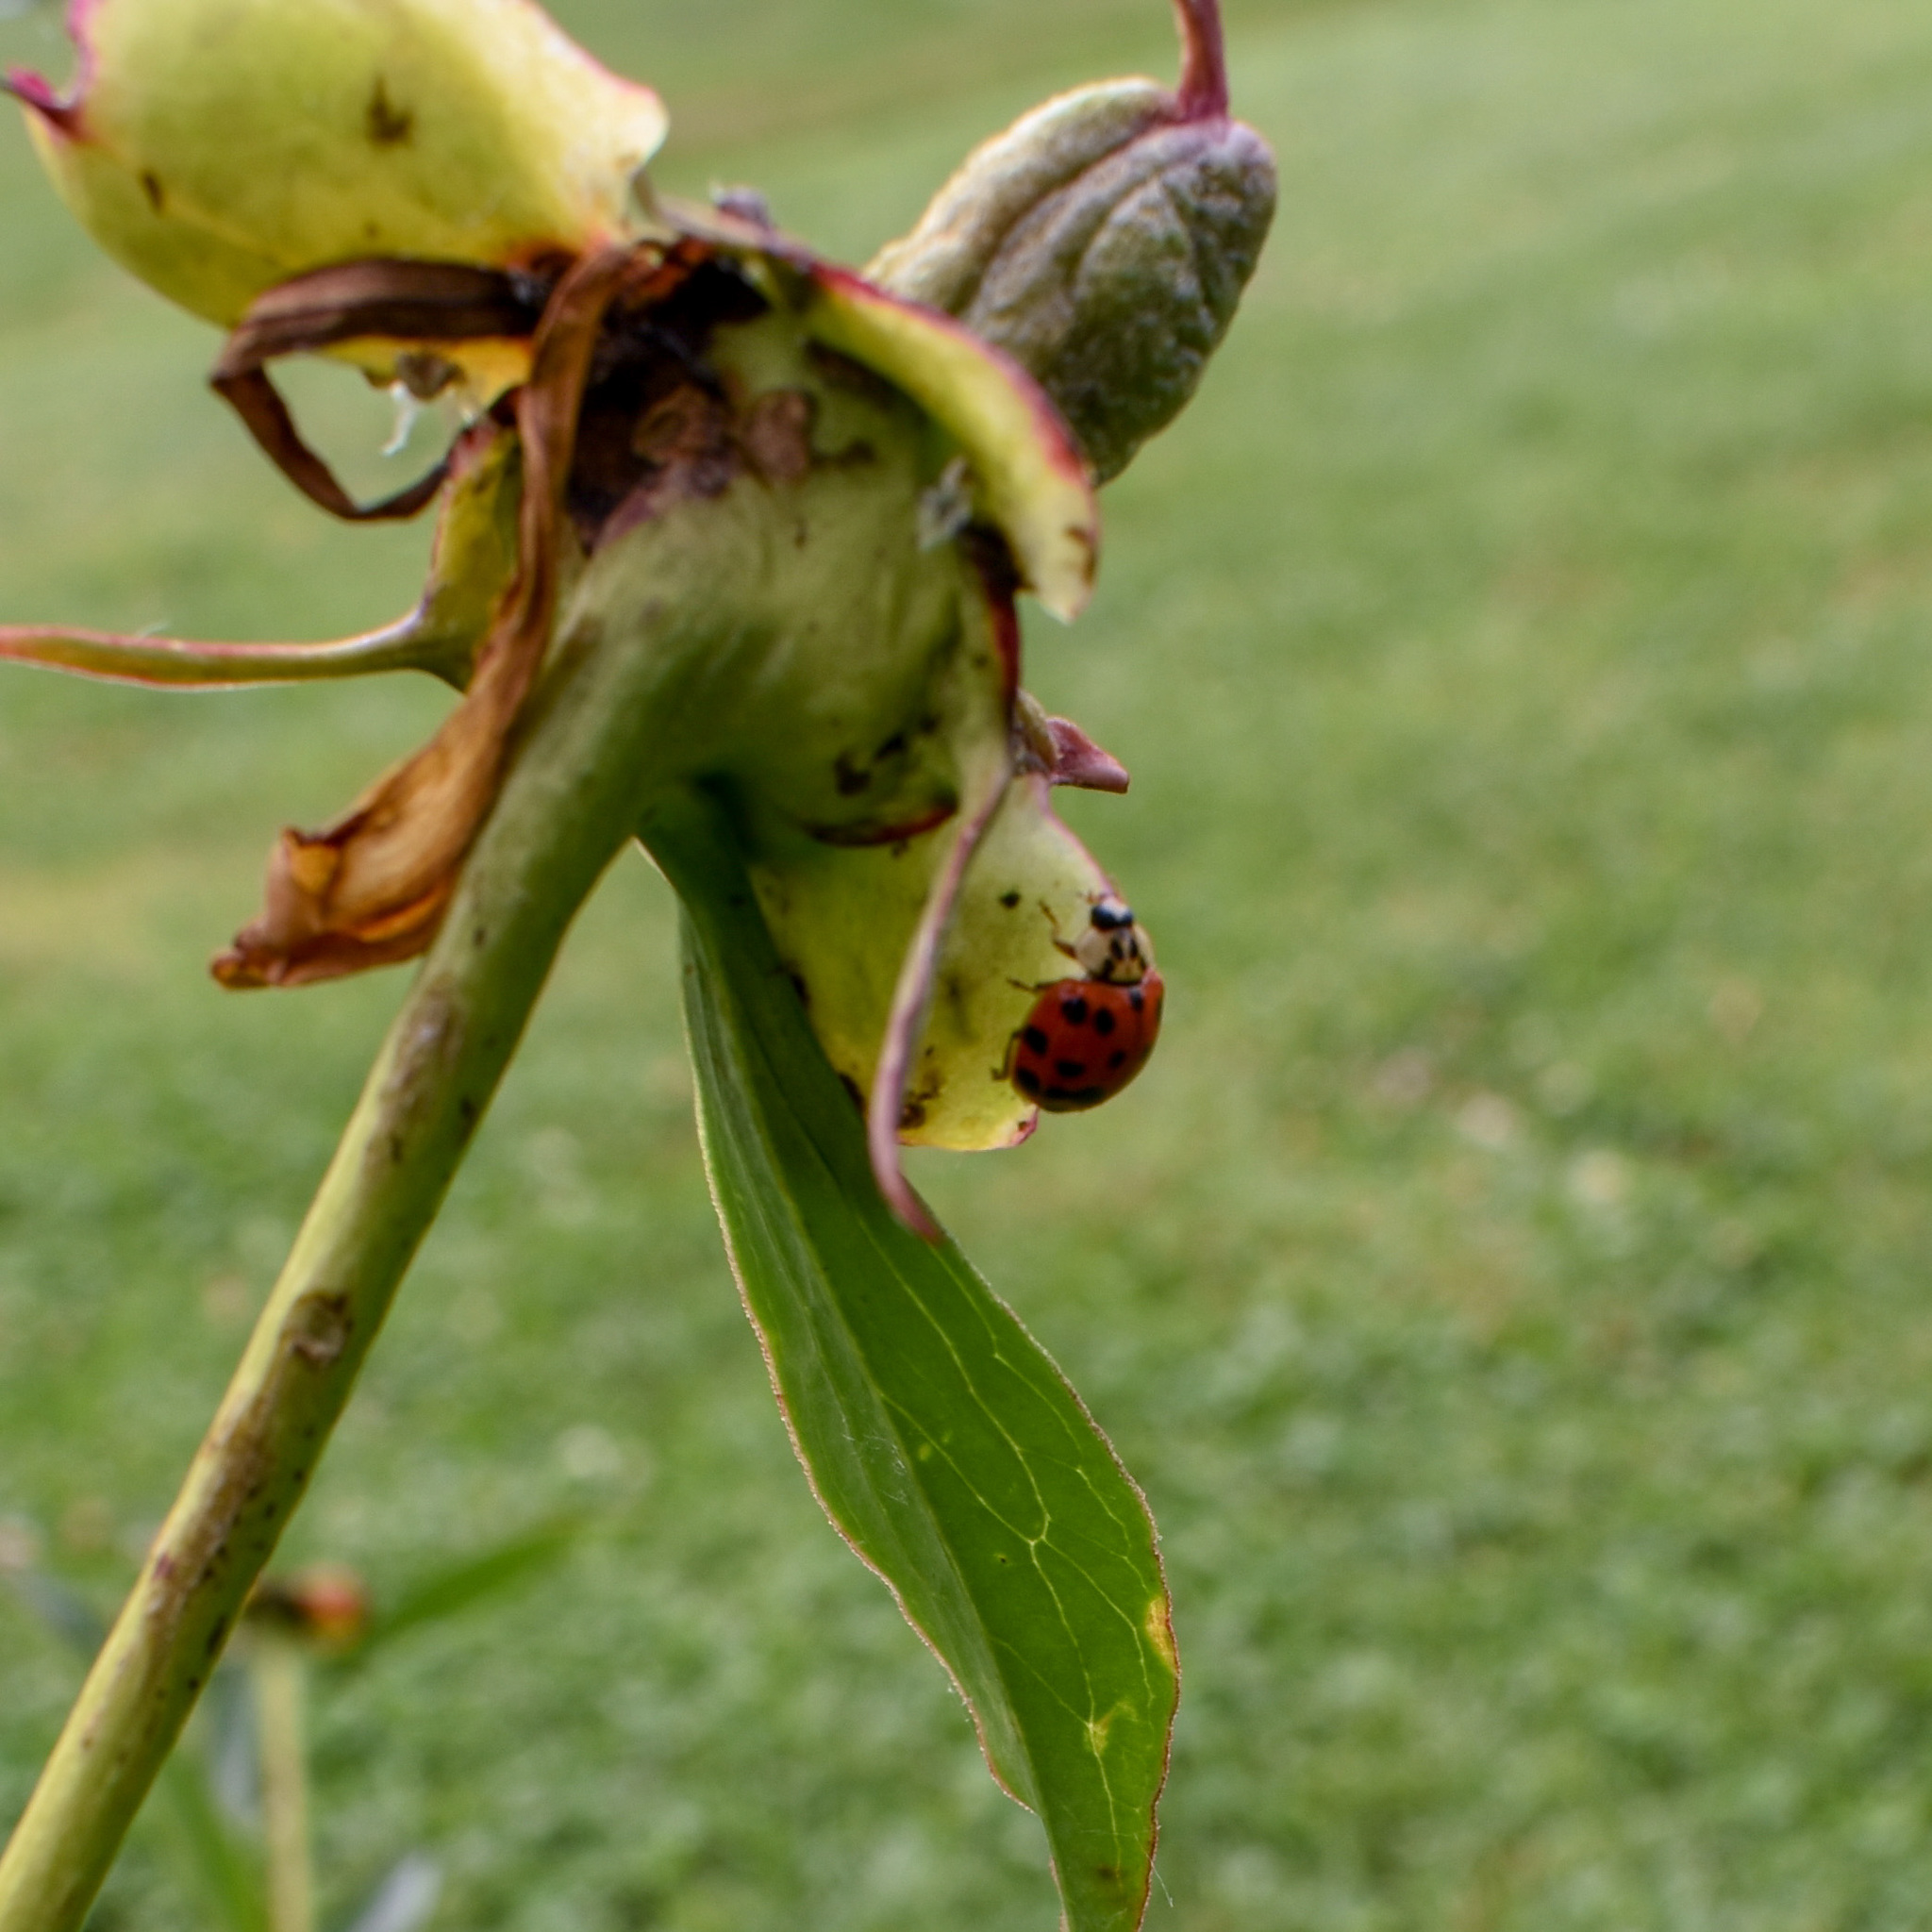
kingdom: Animalia
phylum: Arthropoda
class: Insecta
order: Coleoptera
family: Coccinellidae
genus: Harmonia
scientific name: Harmonia axyridis
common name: Harlequin ladybird
